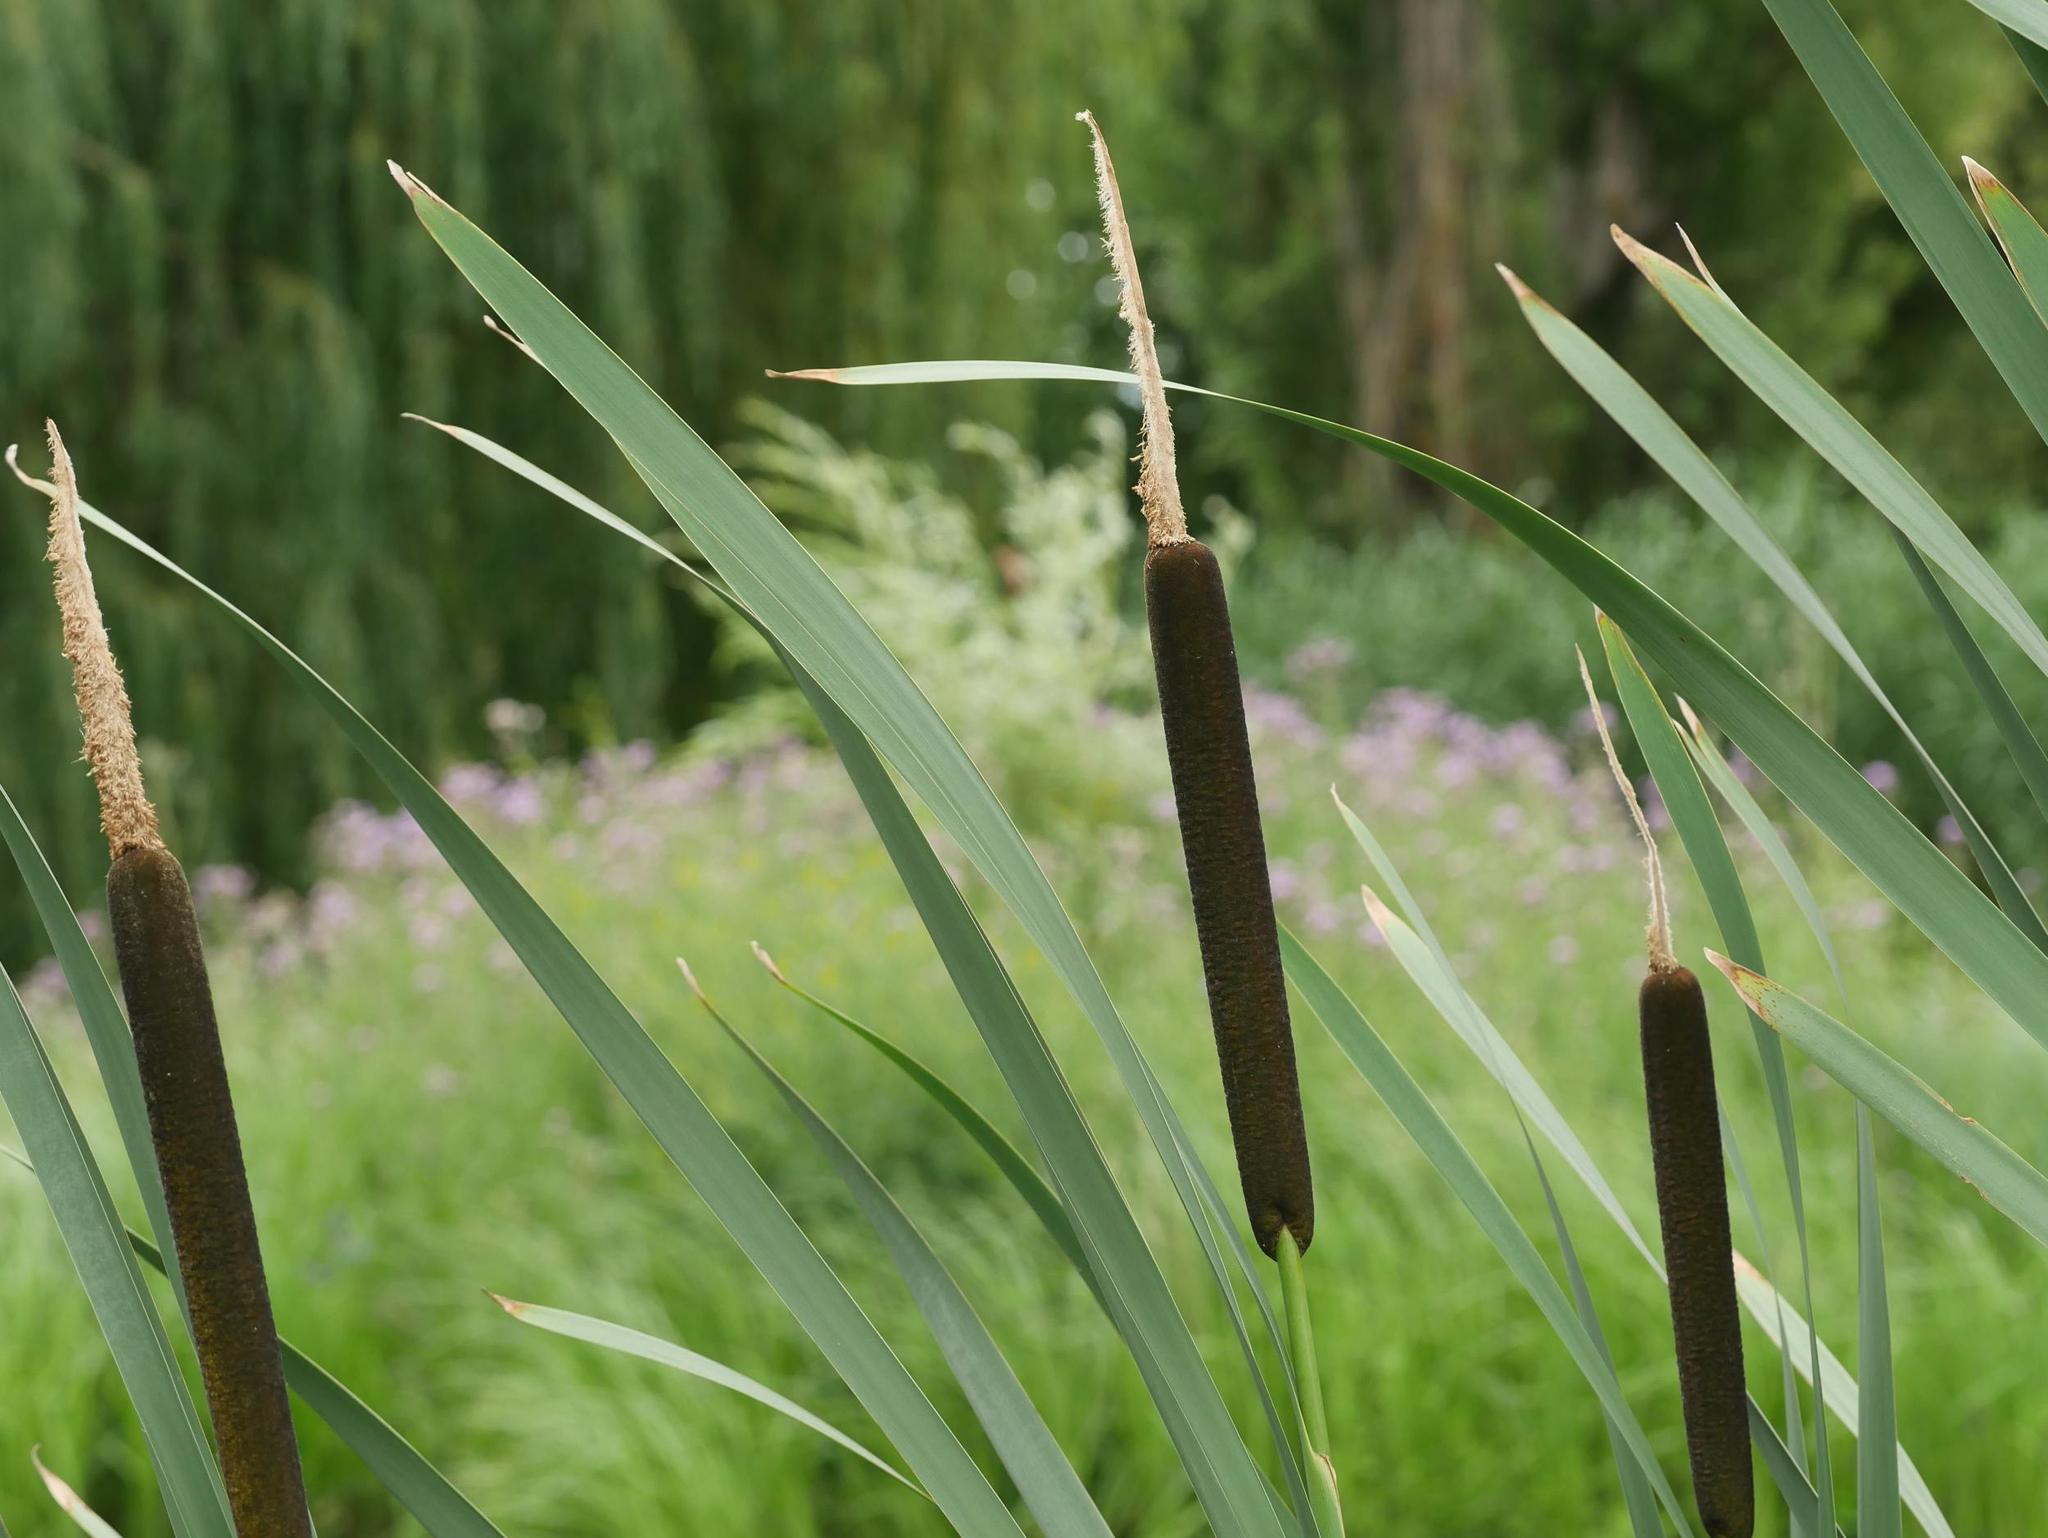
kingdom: Plantae
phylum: Tracheophyta
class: Liliopsida
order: Poales
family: Typhaceae
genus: Typha
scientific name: Typha latifolia
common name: Broadleaf cattail
